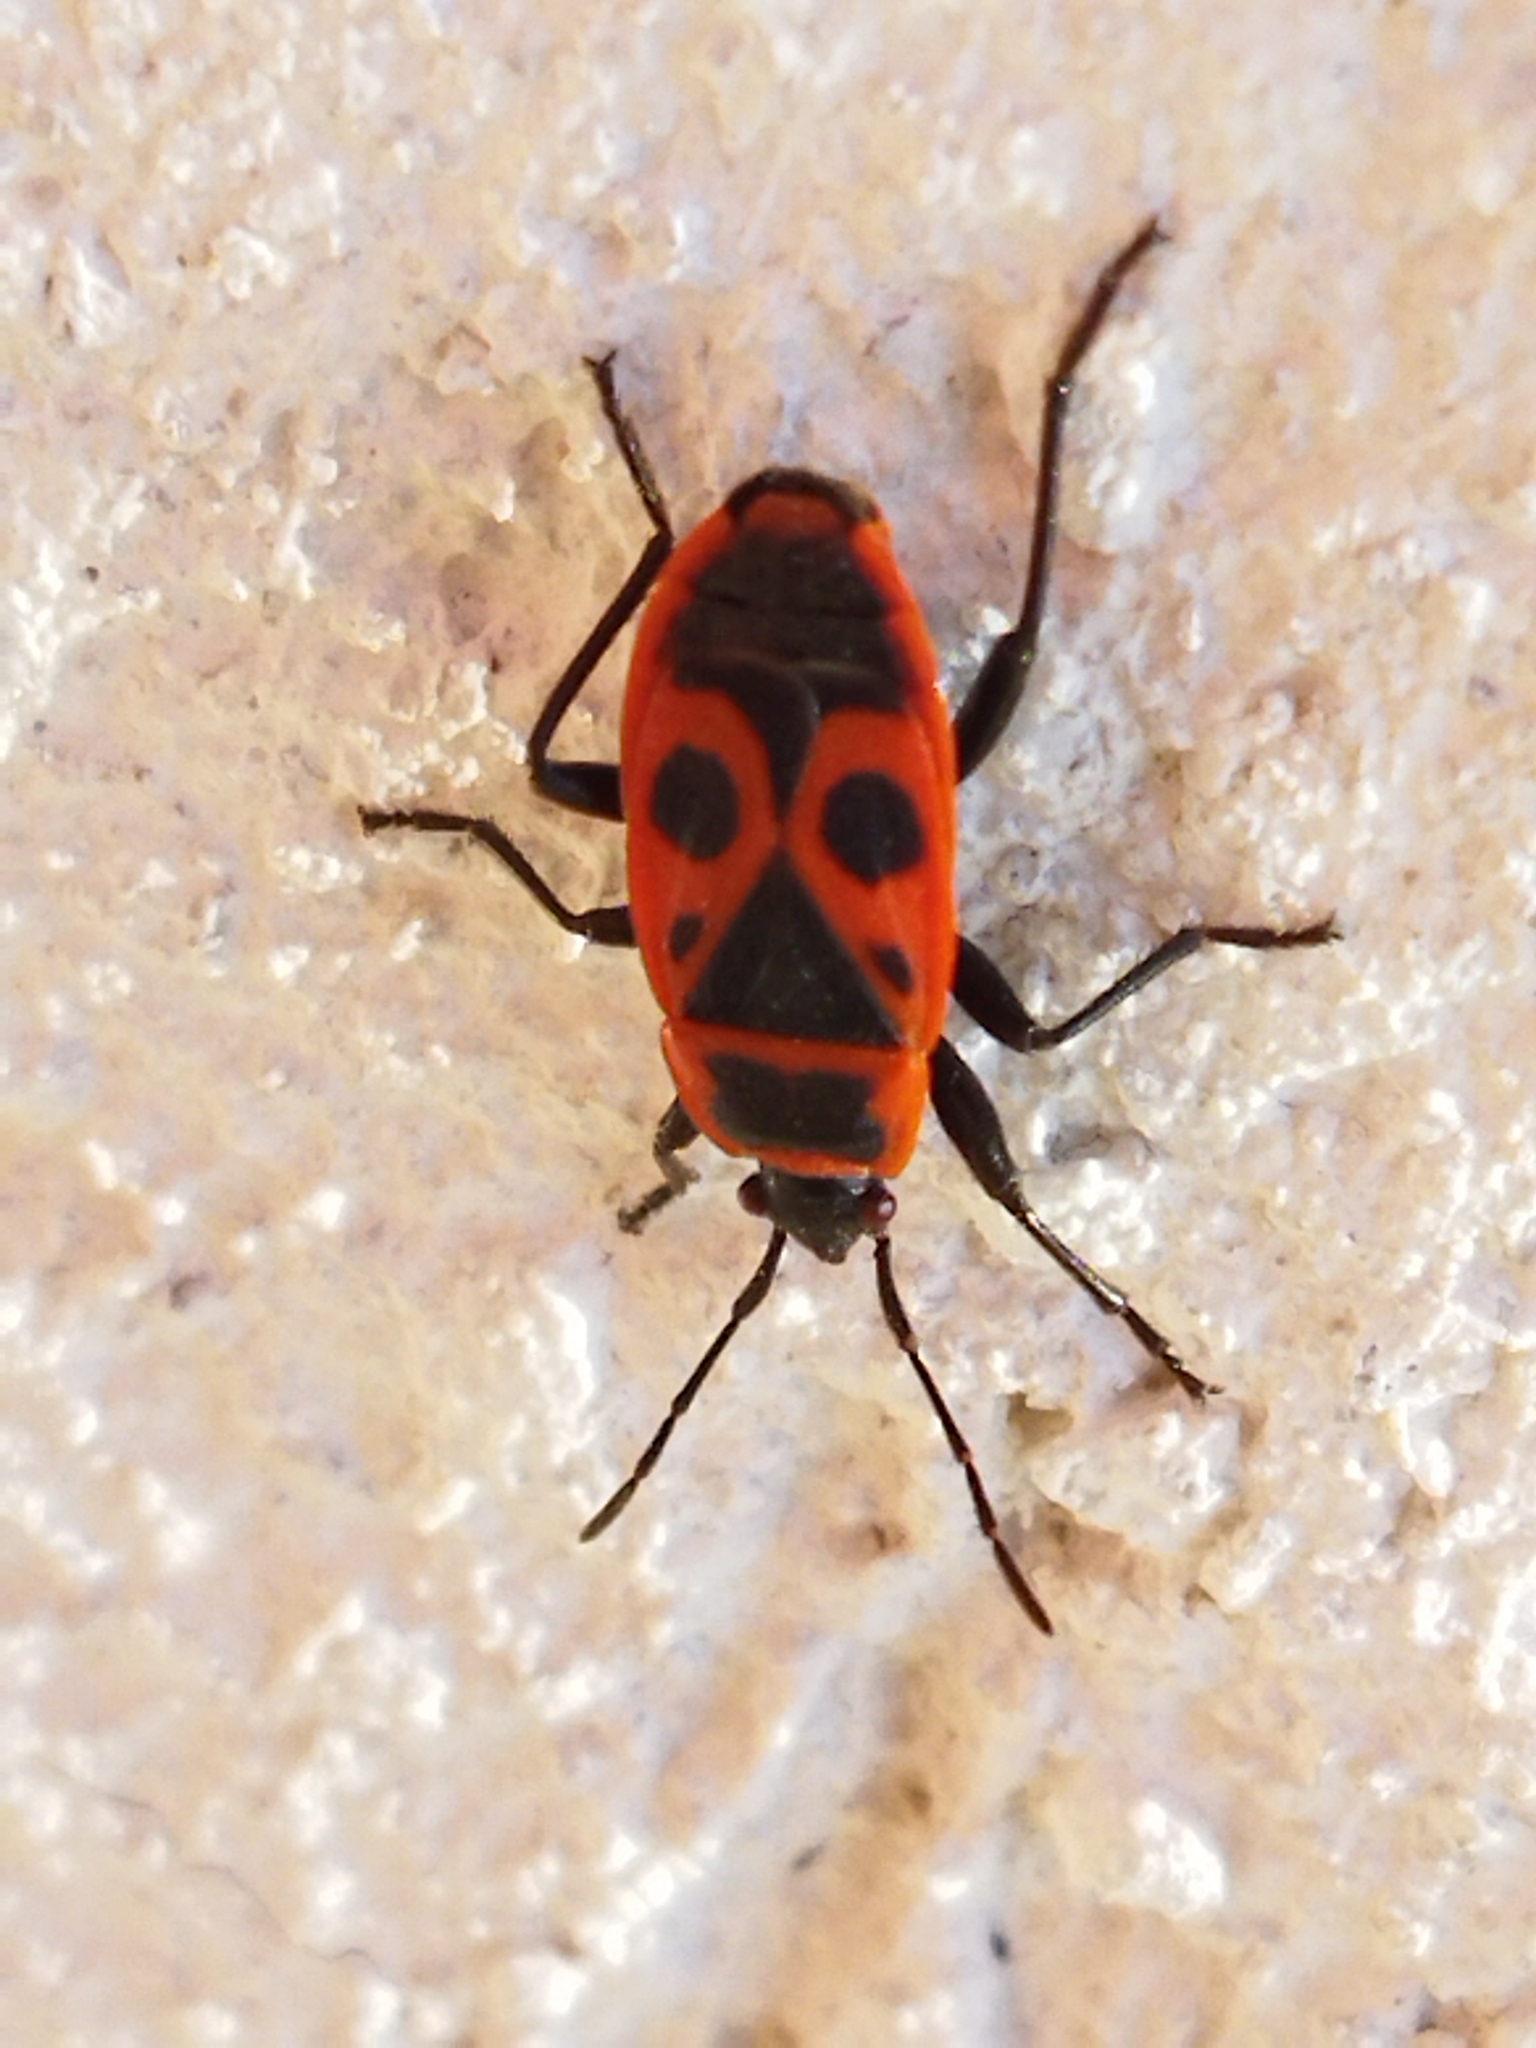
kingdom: Animalia
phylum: Arthropoda
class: Insecta
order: Hemiptera
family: Pyrrhocoridae
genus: Pyrrhocoris
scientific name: Pyrrhocoris apterus
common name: Firebug
